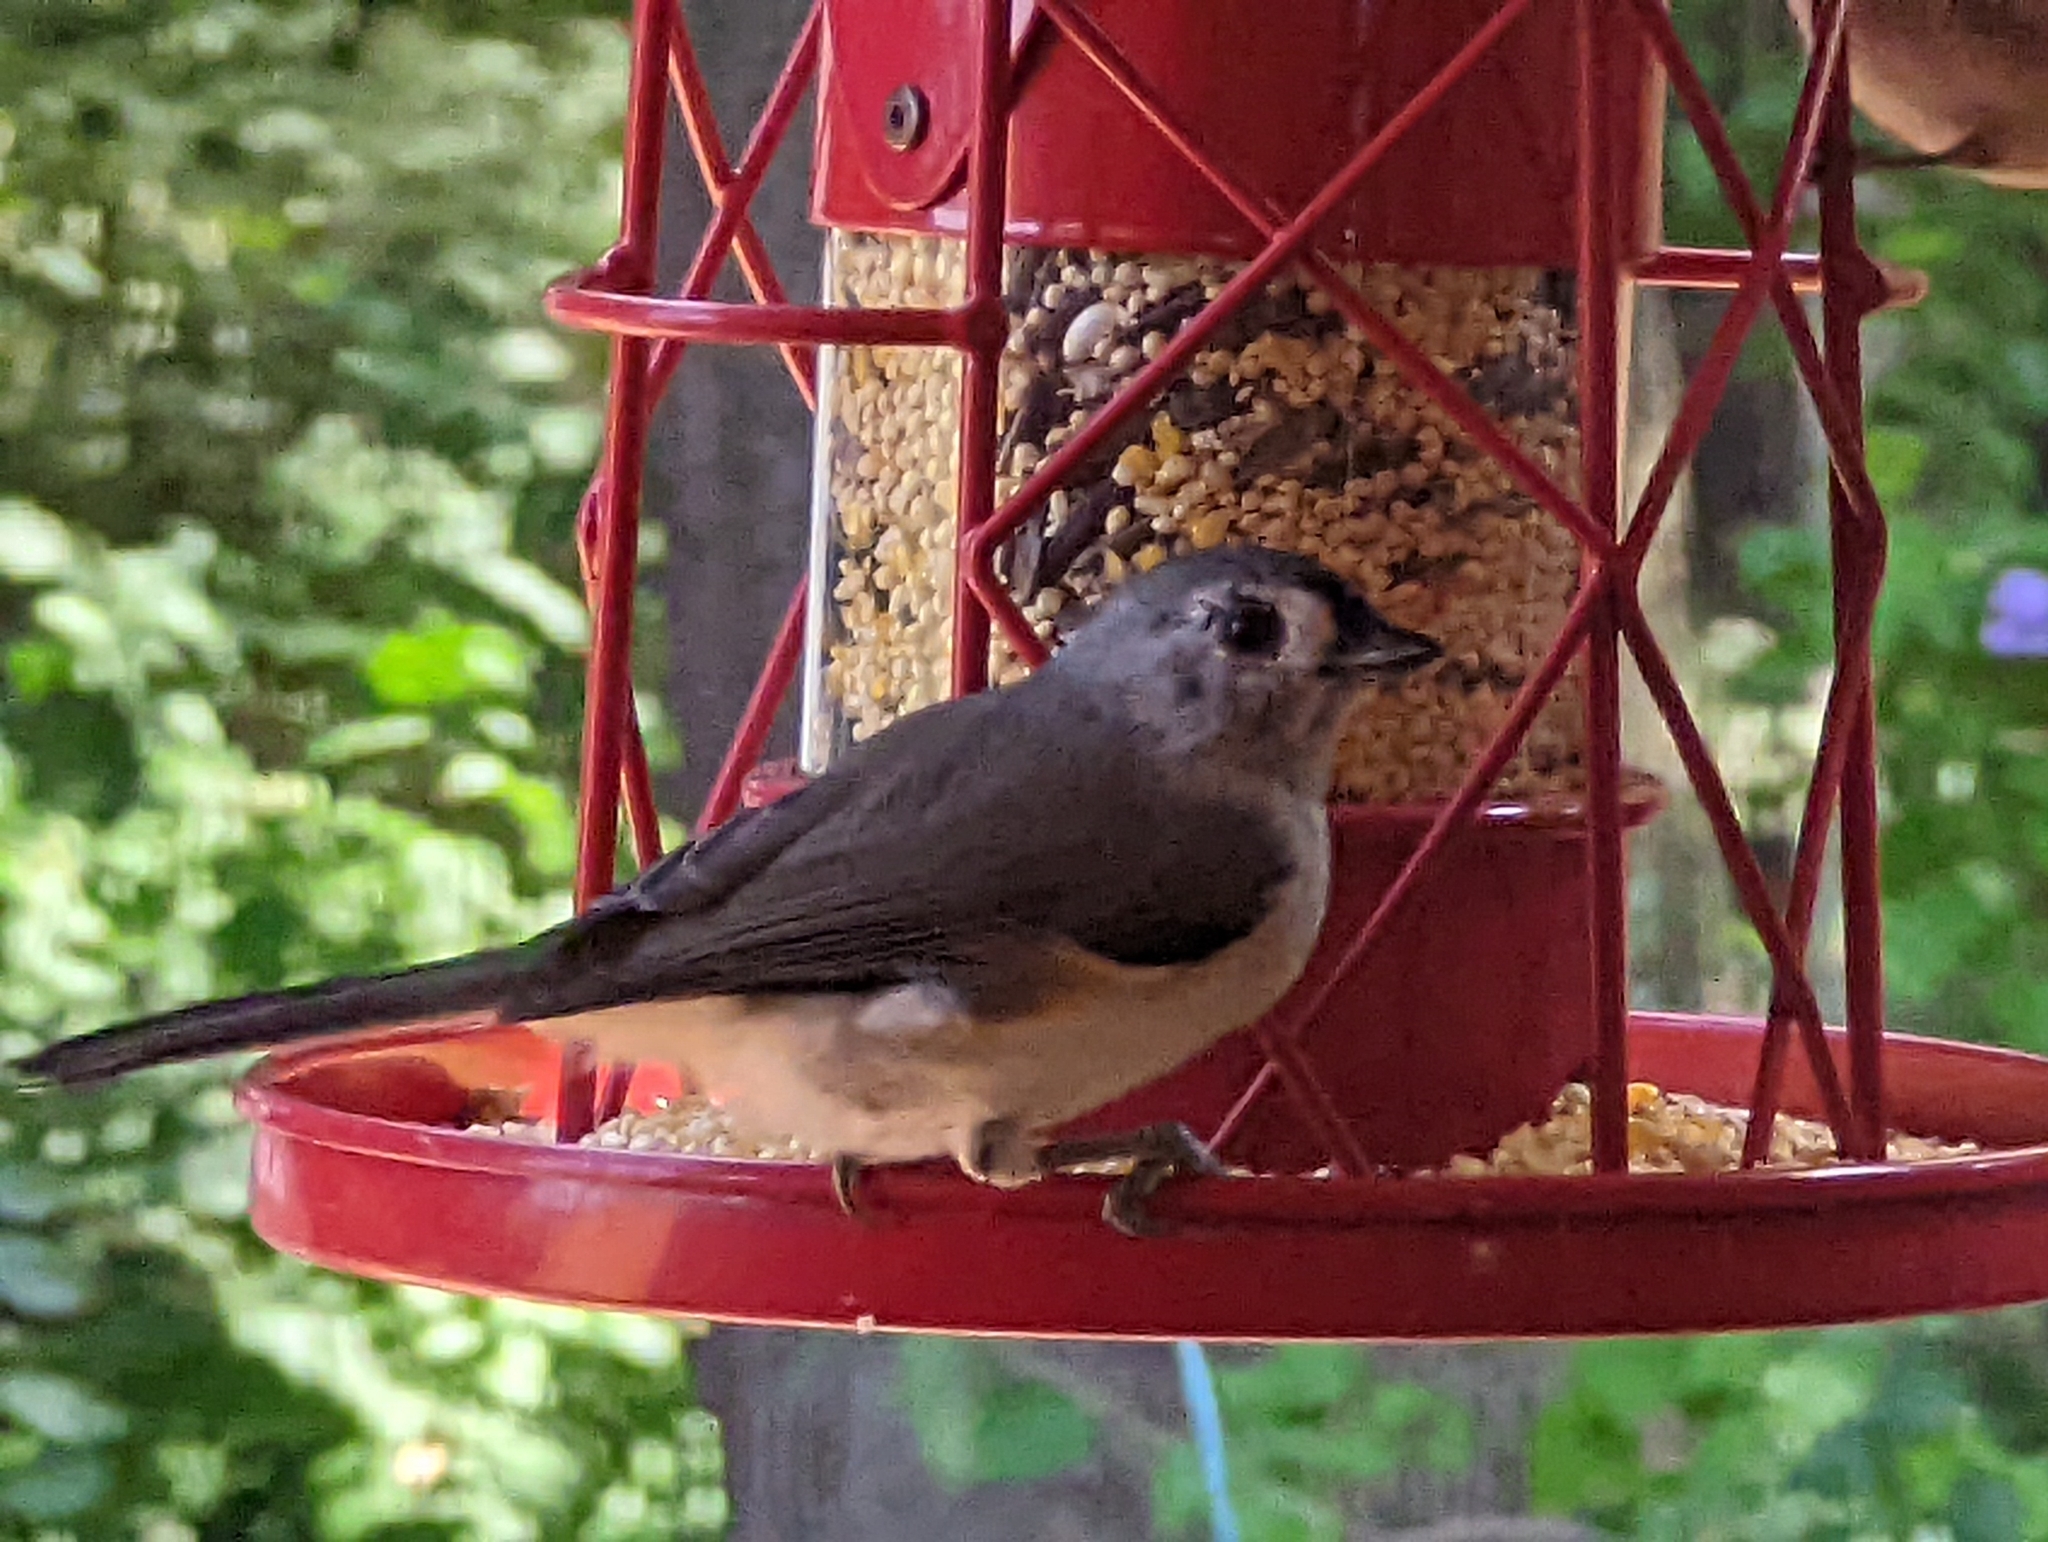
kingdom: Animalia
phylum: Chordata
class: Aves
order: Passeriformes
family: Paridae
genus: Baeolophus
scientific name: Baeolophus bicolor
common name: Tufted titmouse
